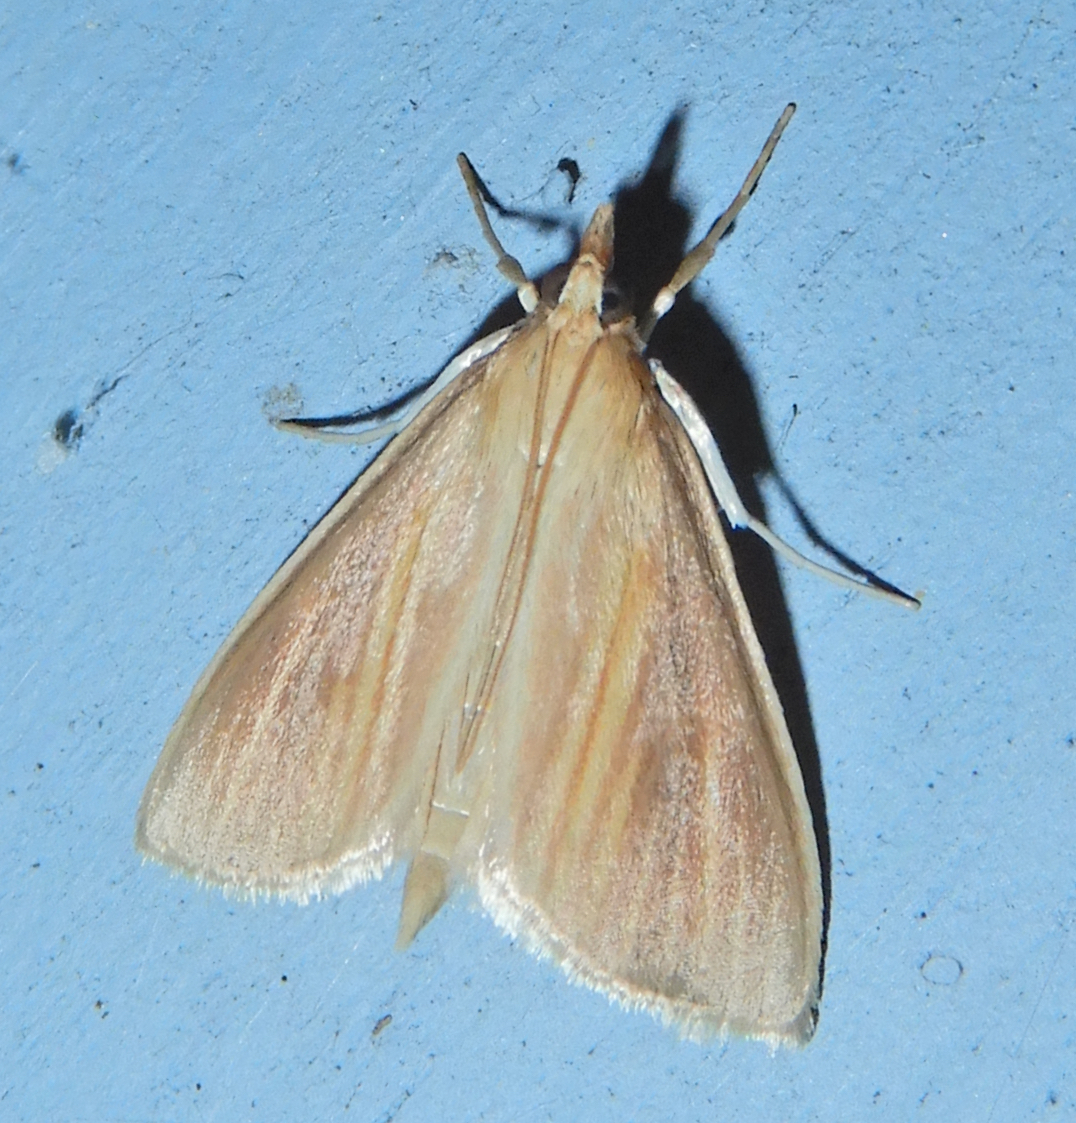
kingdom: Animalia
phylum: Arthropoda
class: Insecta
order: Lepidoptera
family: Crambidae
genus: Nascia
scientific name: Nascia acutellus
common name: Streaked orange moth
